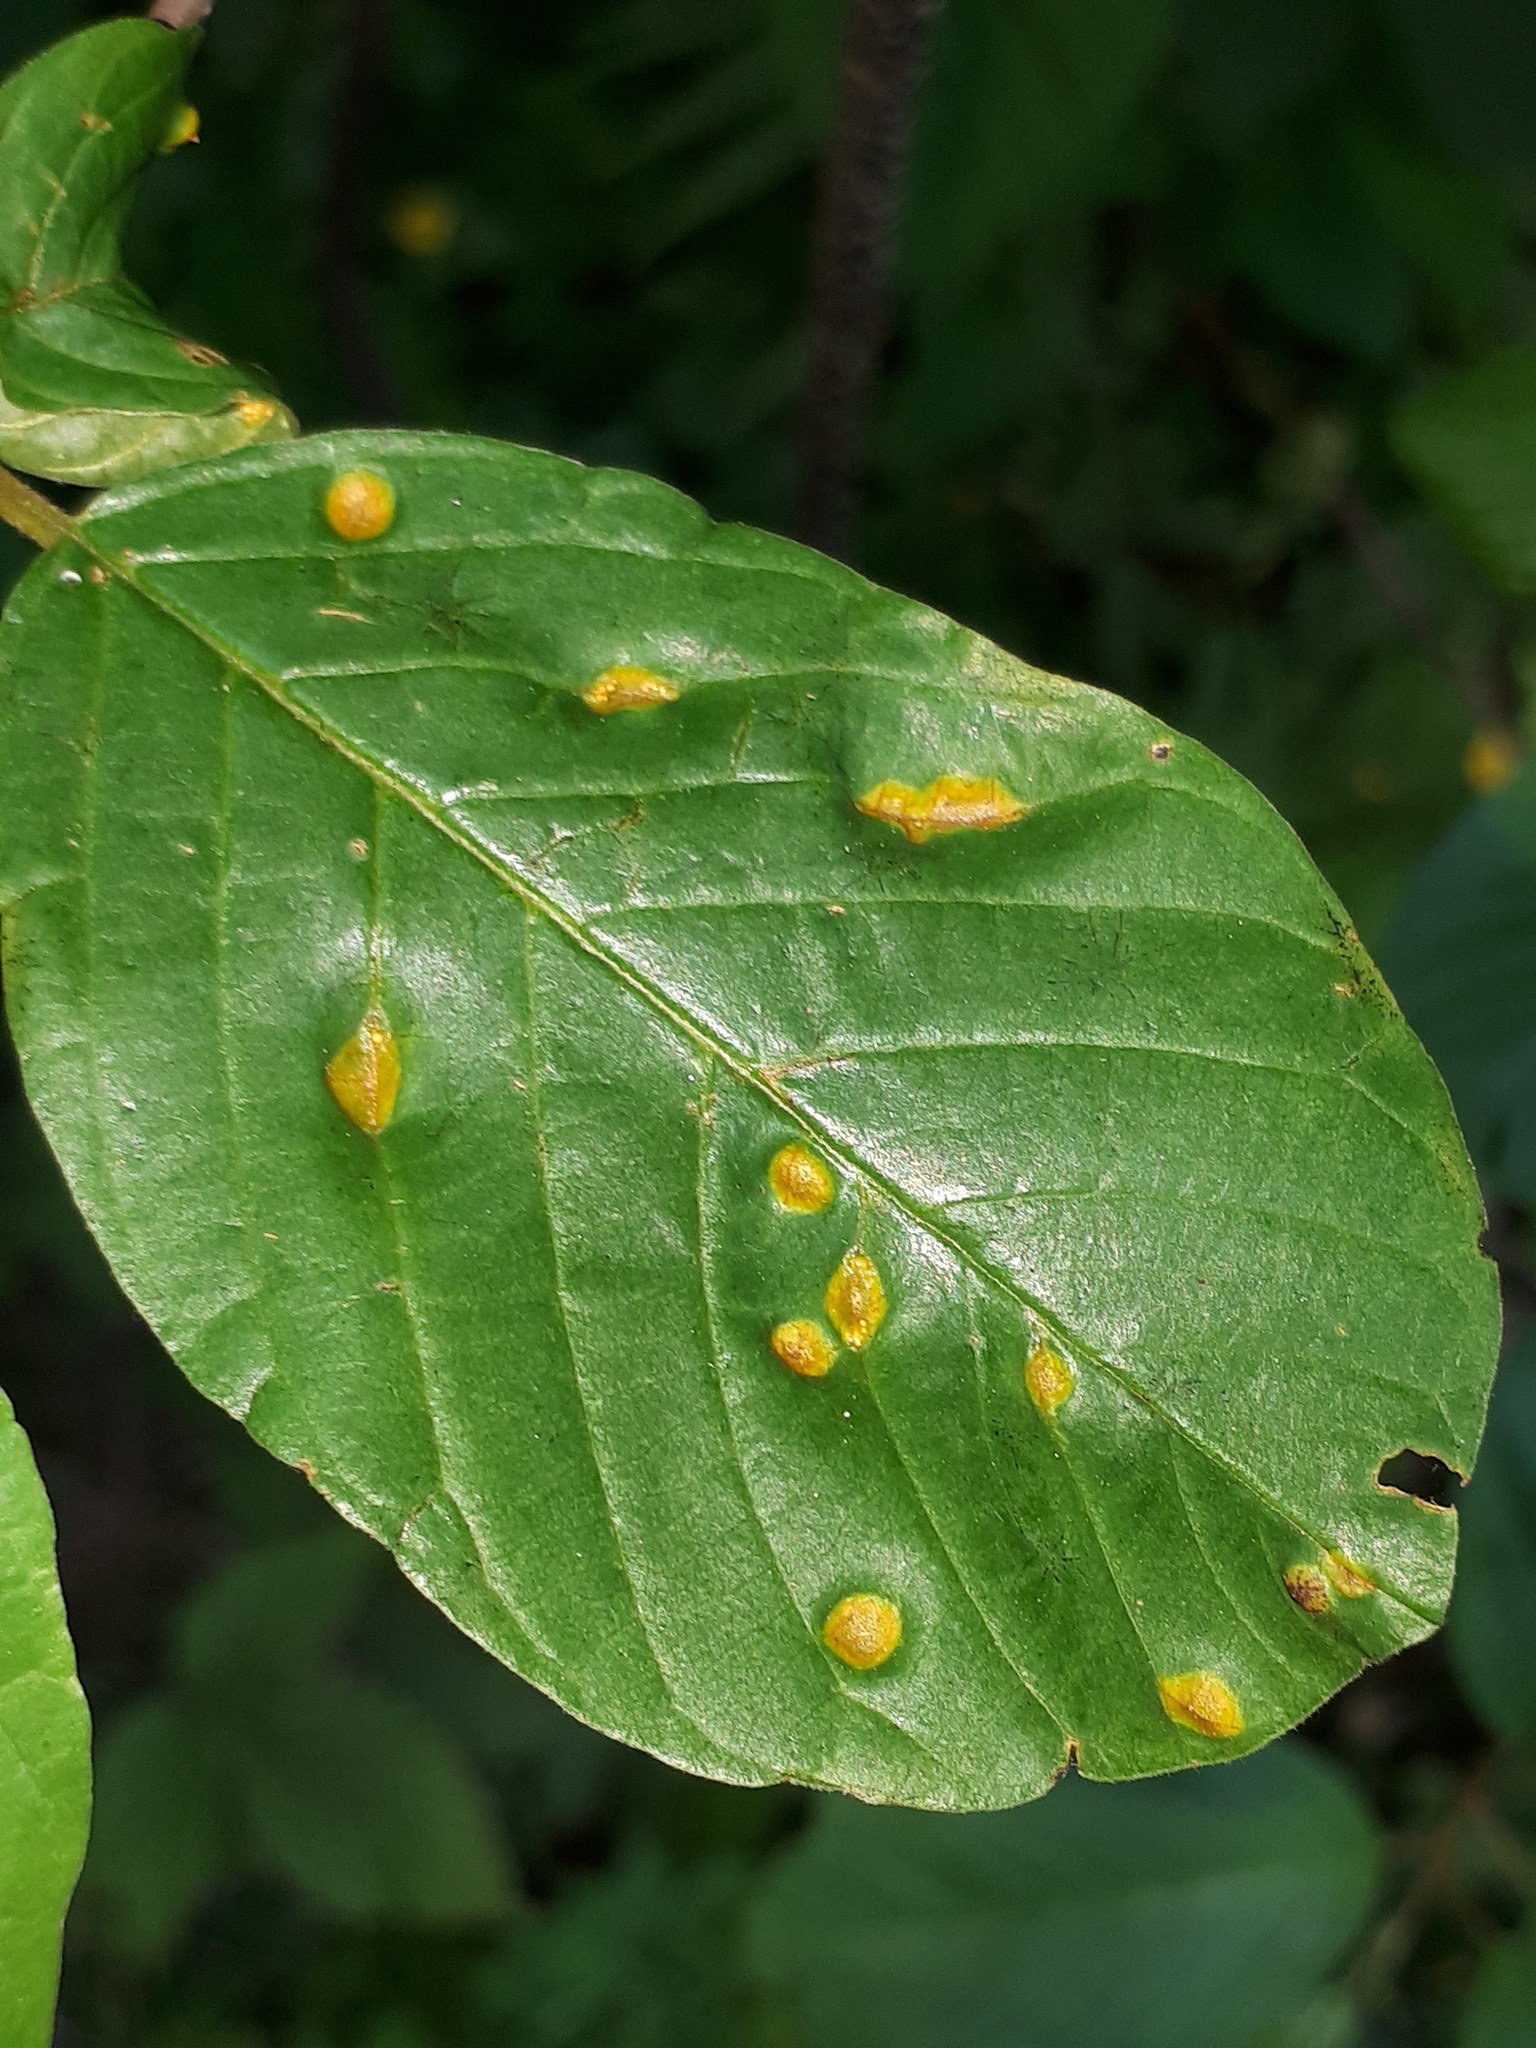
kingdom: Fungi
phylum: Basidiomycota
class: Pucciniomycetes
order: Pucciniales
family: Pucciniaceae
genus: Puccinia
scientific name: Puccinia coronata
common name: Crown rust
